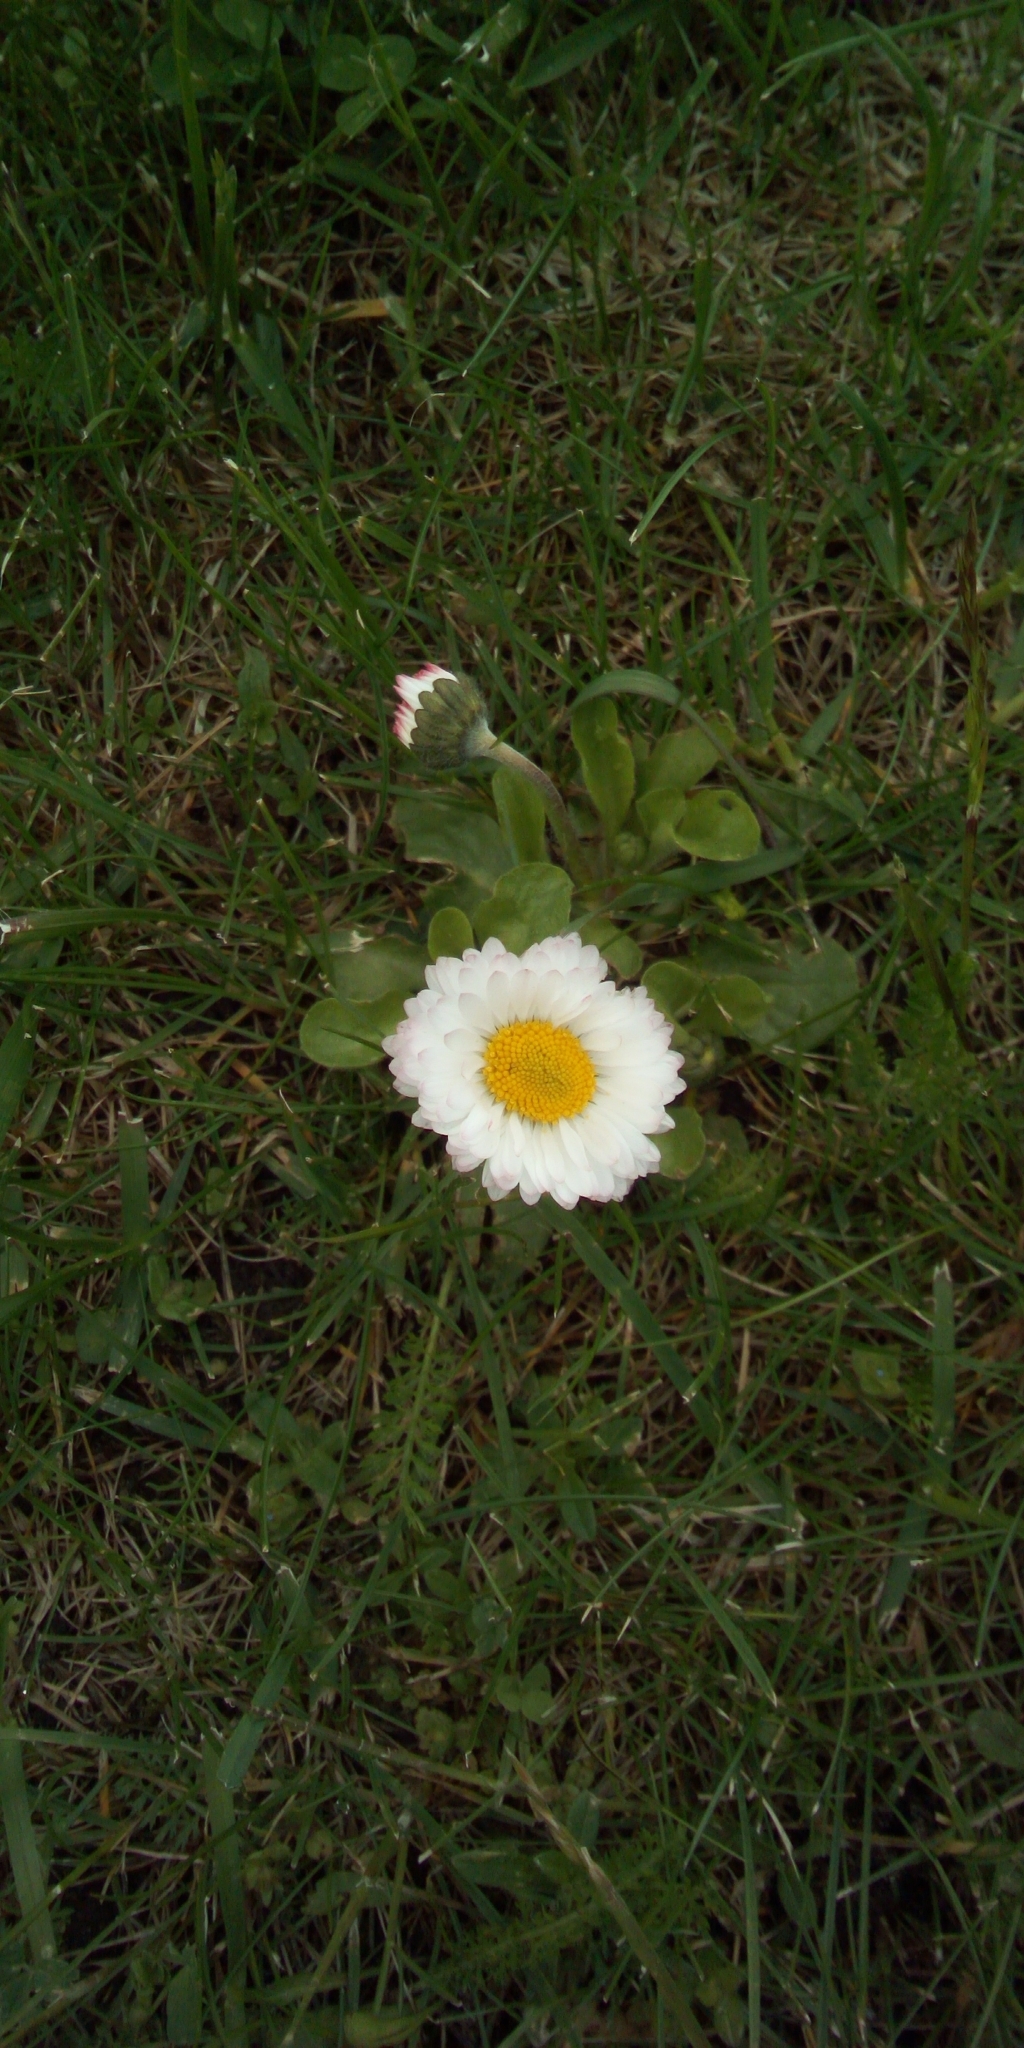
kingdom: Plantae
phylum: Tracheophyta
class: Magnoliopsida
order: Asterales
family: Asteraceae
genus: Bellis
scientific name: Bellis perennis
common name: Lawndaisy
